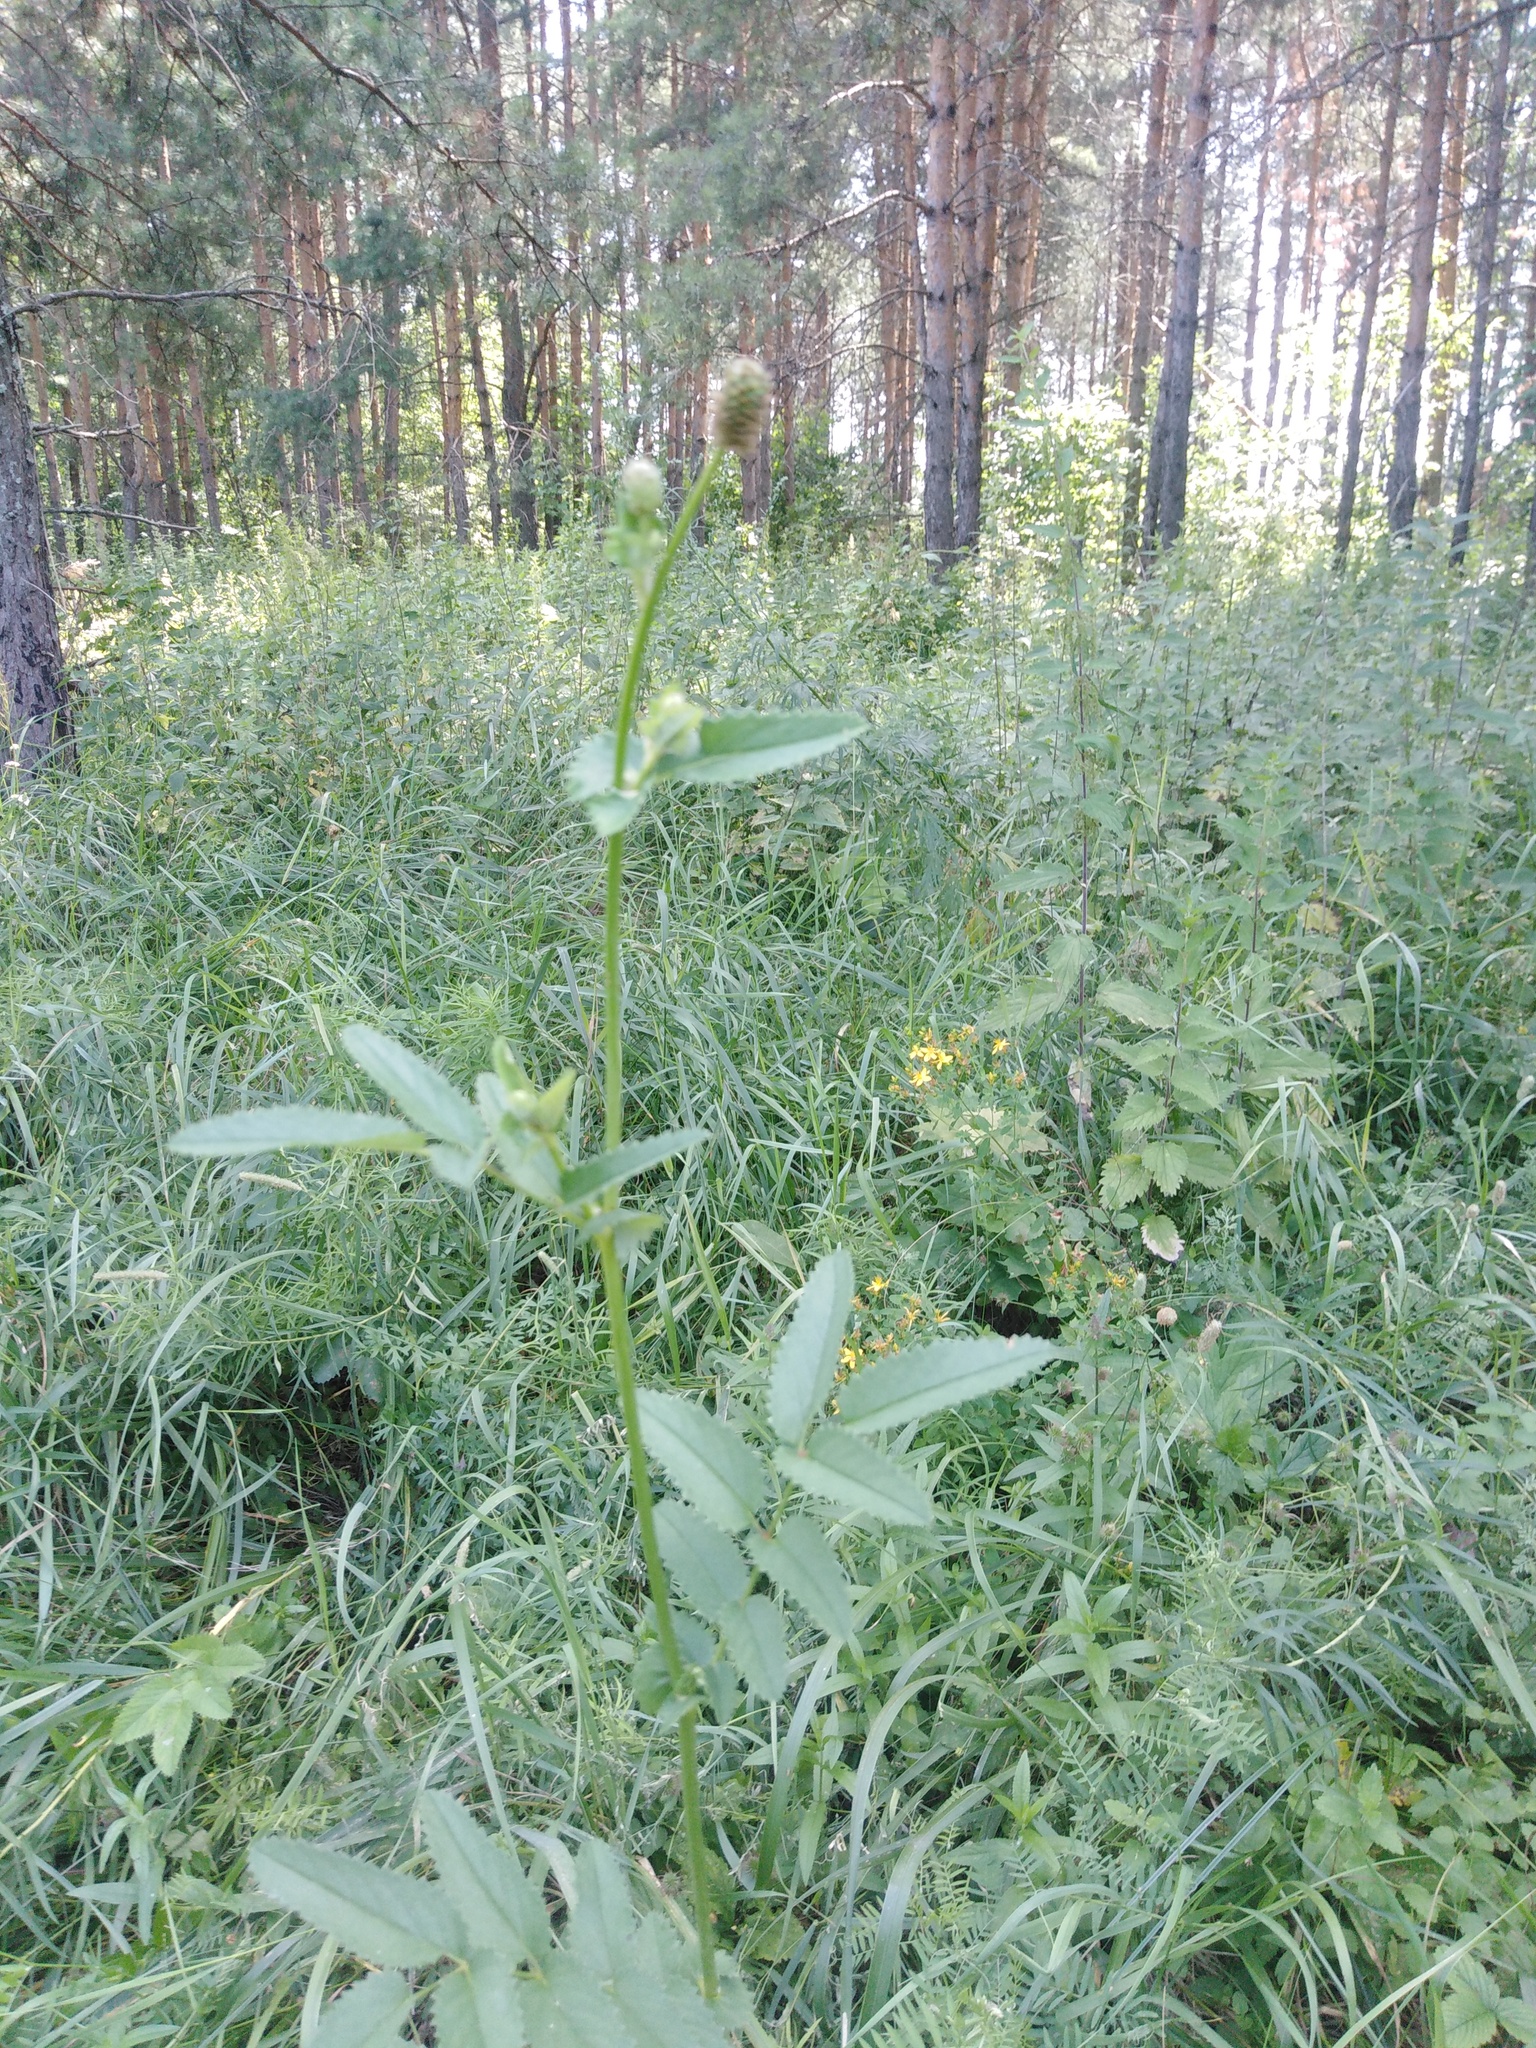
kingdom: Plantae
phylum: Tracheophyta
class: Magnoliopsida
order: Rosales
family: Rosaceae
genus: Sanguisorba
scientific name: Sanguisorba officinalis
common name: Great burnet
